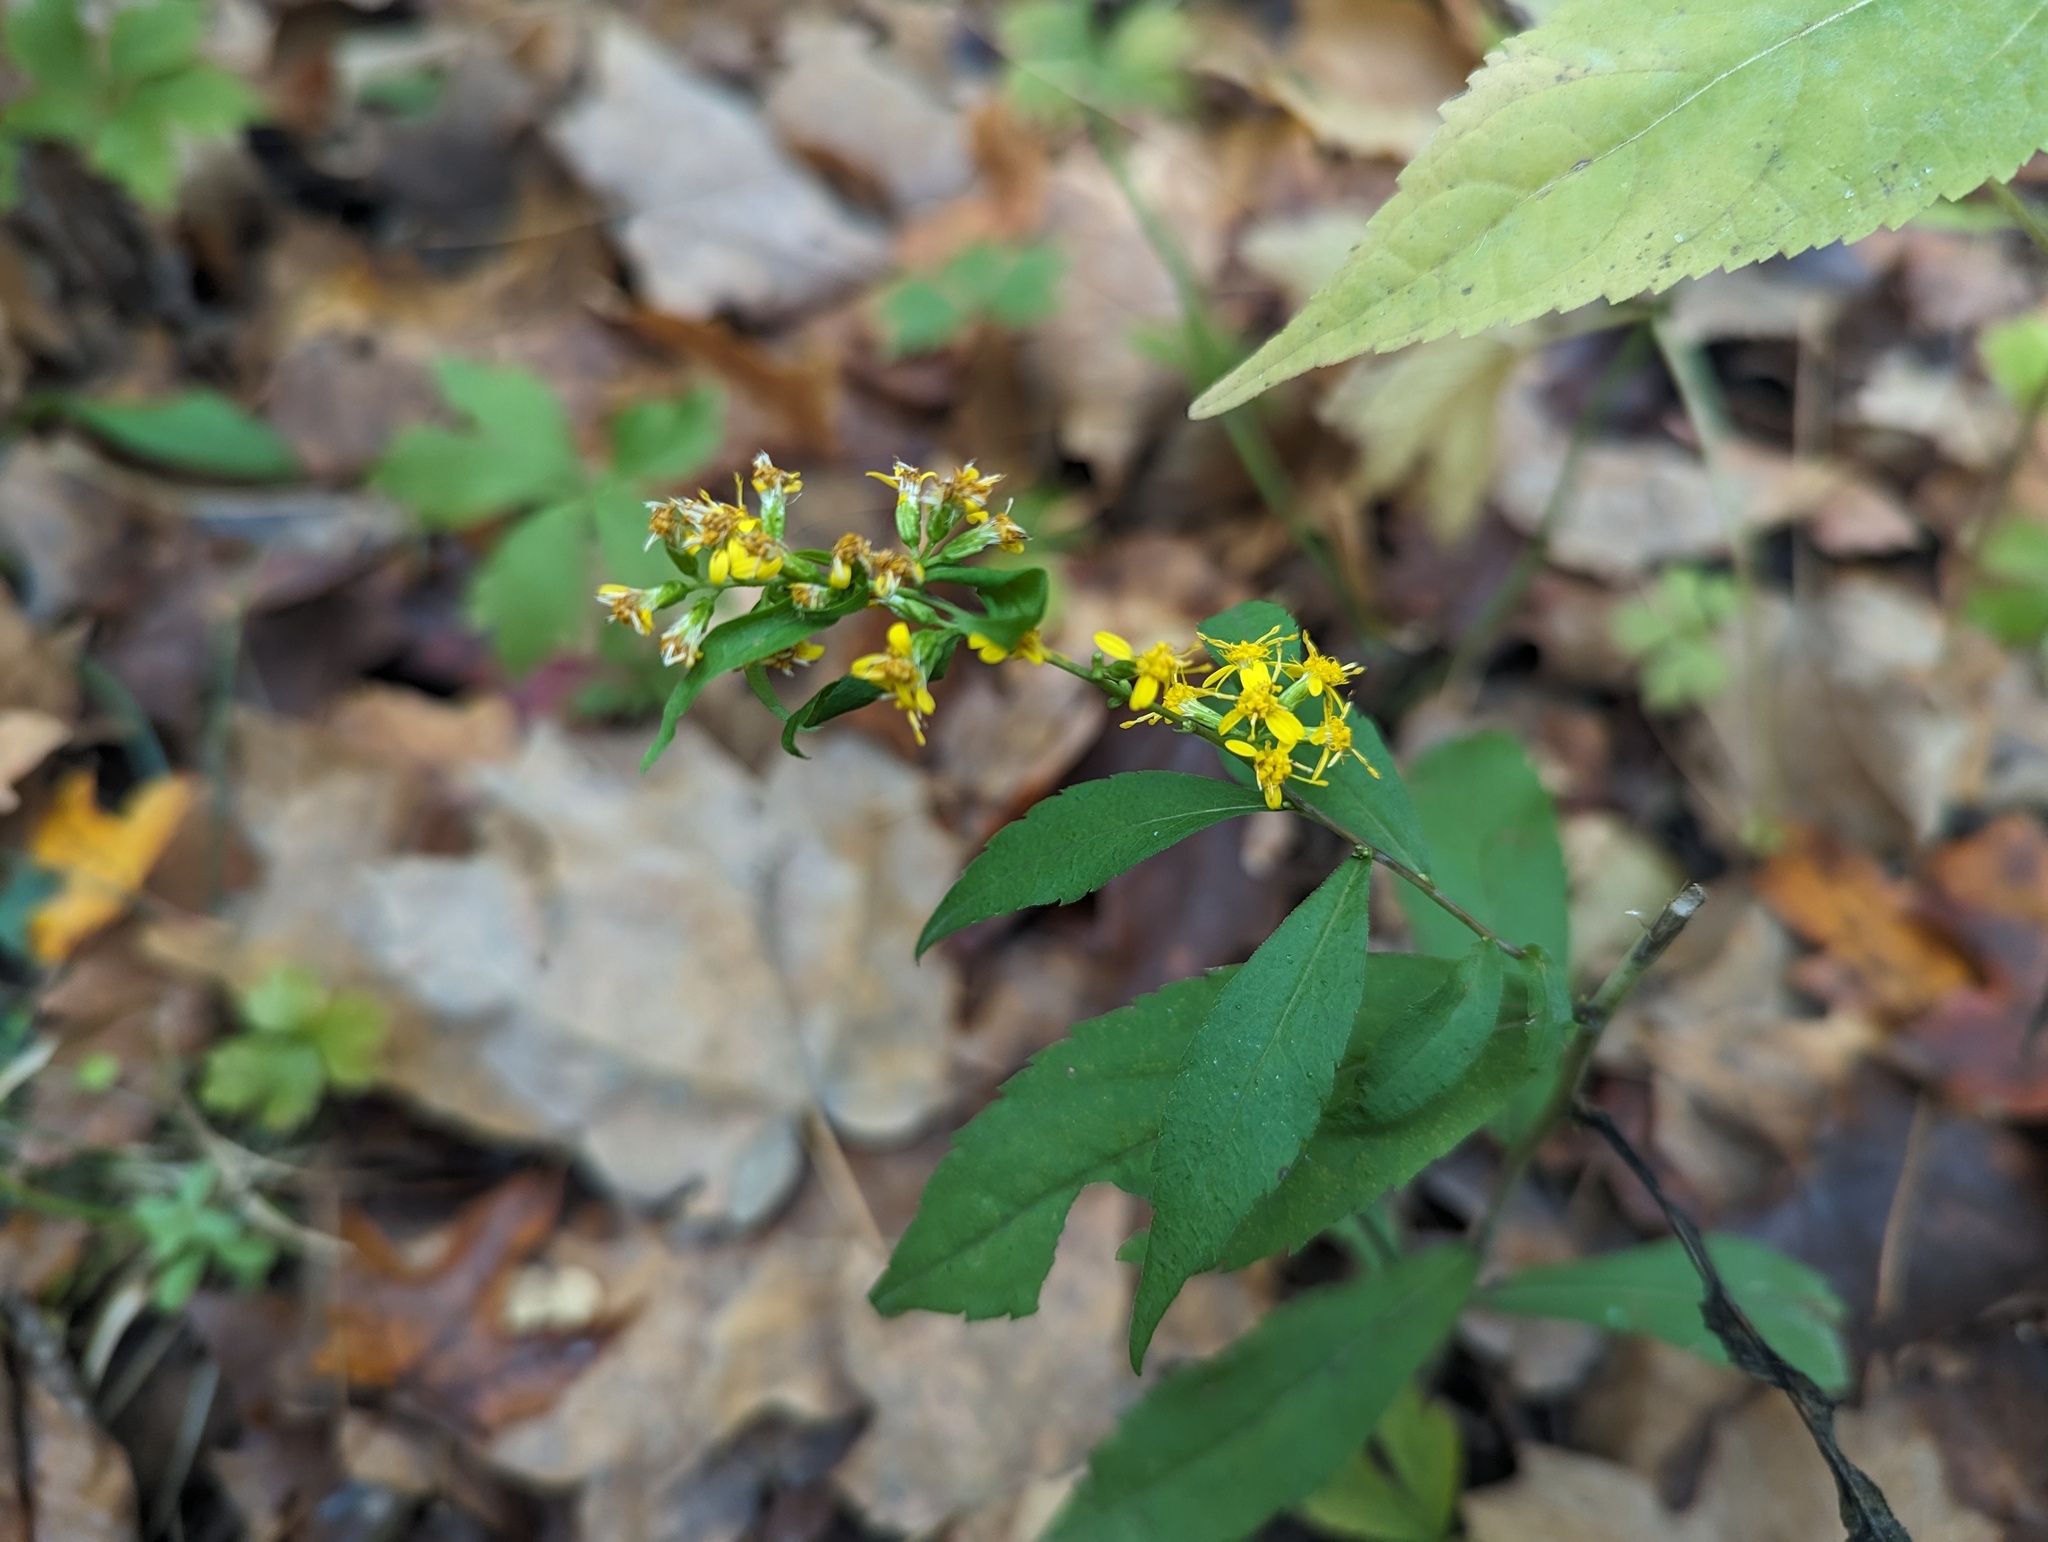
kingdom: Plantae
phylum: Tracheophyta
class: Magnoliopsida
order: Asterales
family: Asteraceae
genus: Solidago
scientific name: Solidago caesia
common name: Woodland goldenrod
